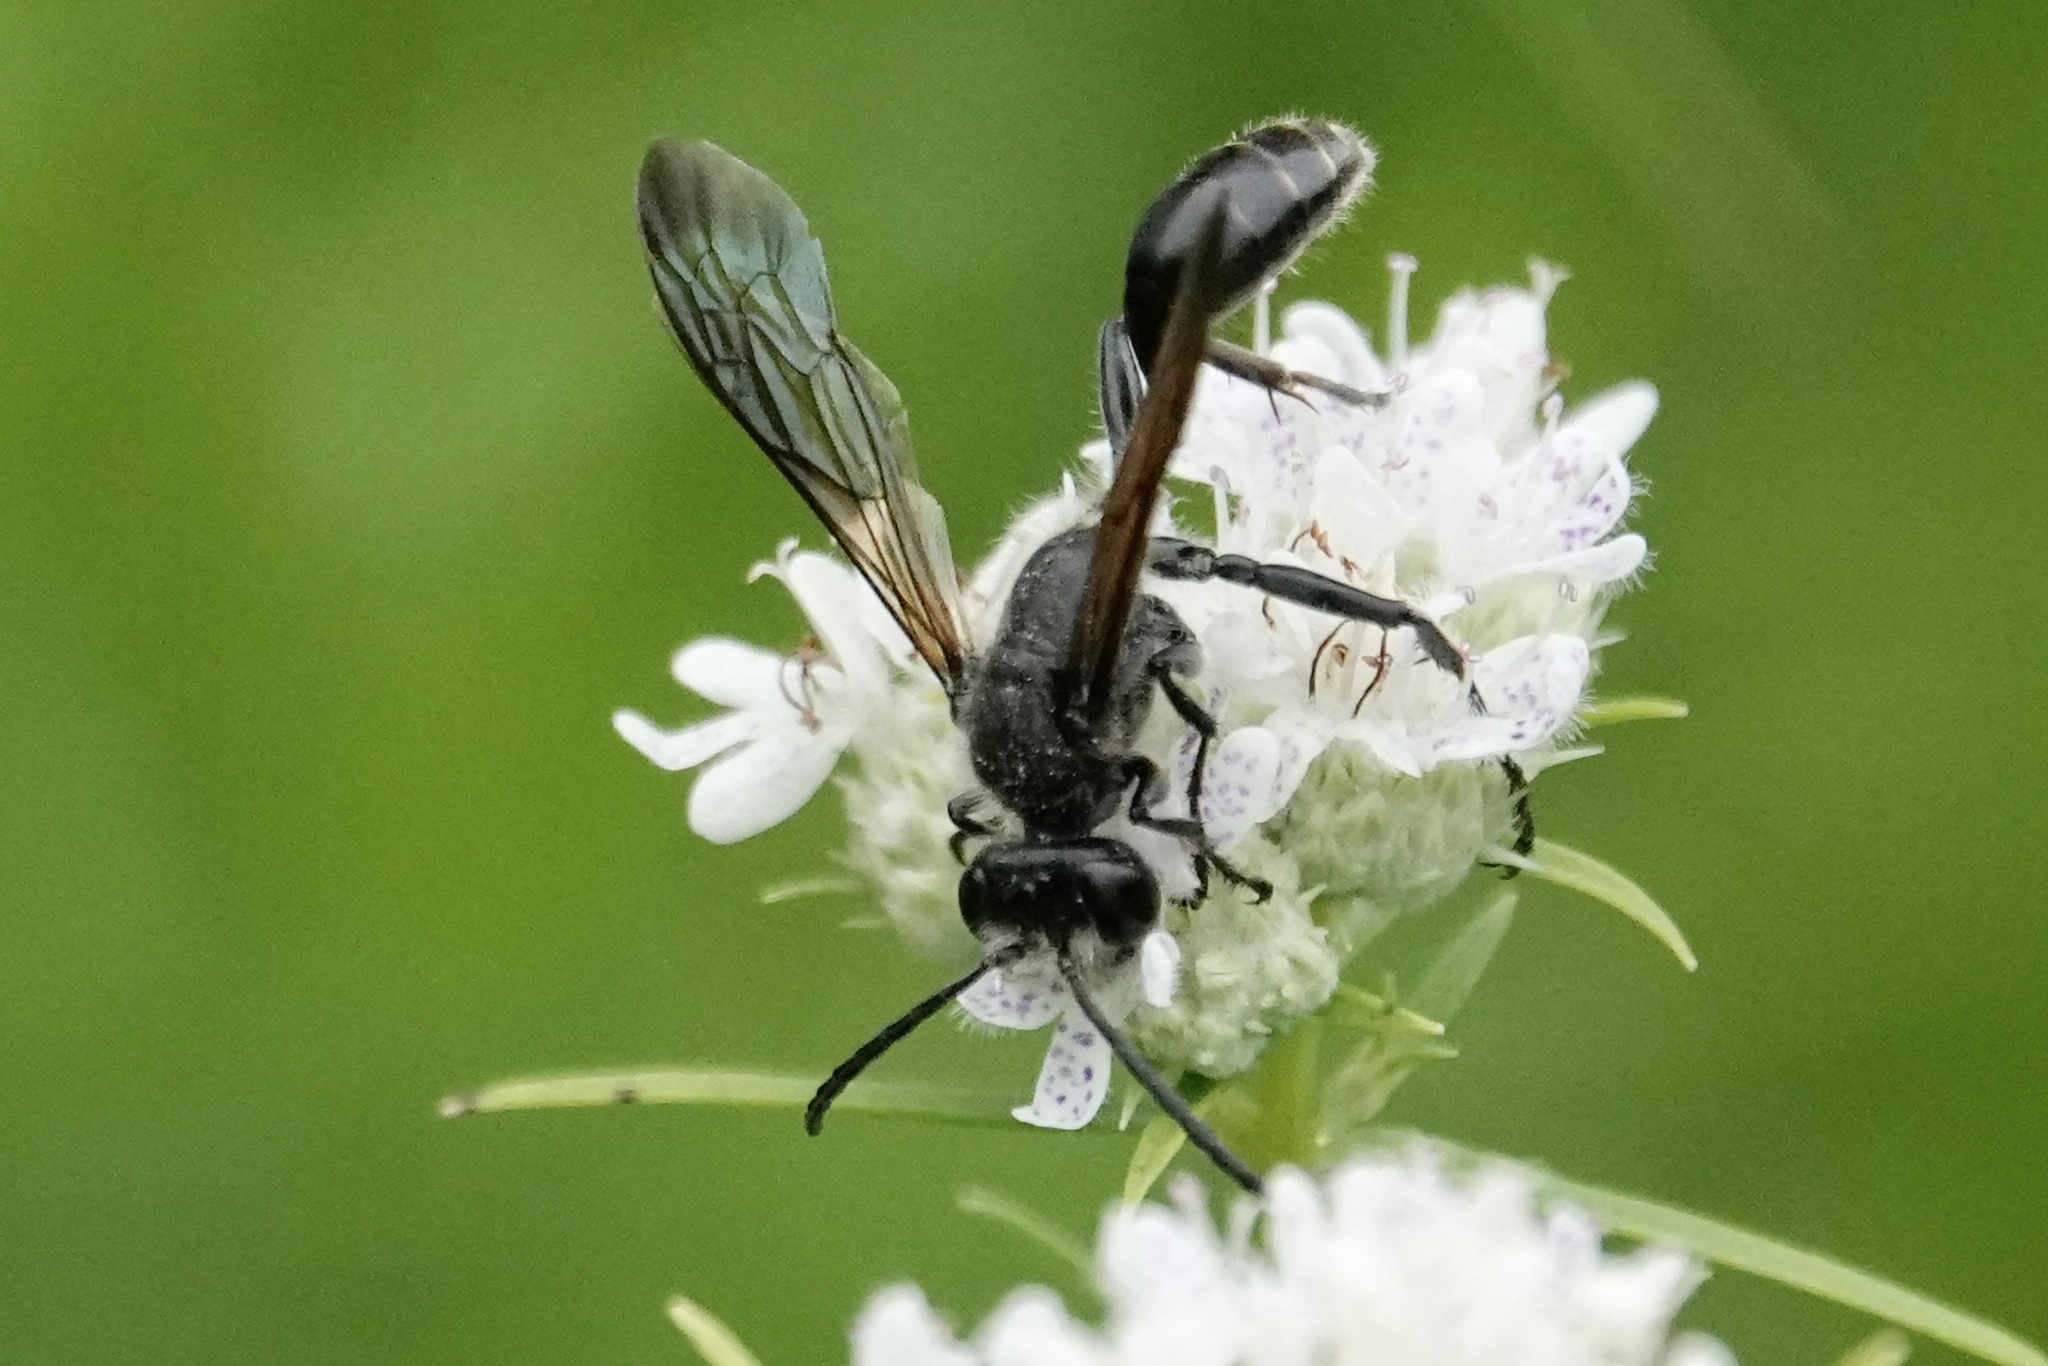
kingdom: Animalia
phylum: Arthropoda
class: Insecta
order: Hymenoptera
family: Sphecidae
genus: Isodontia
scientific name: Isodontia mexicana
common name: Mud dauber
